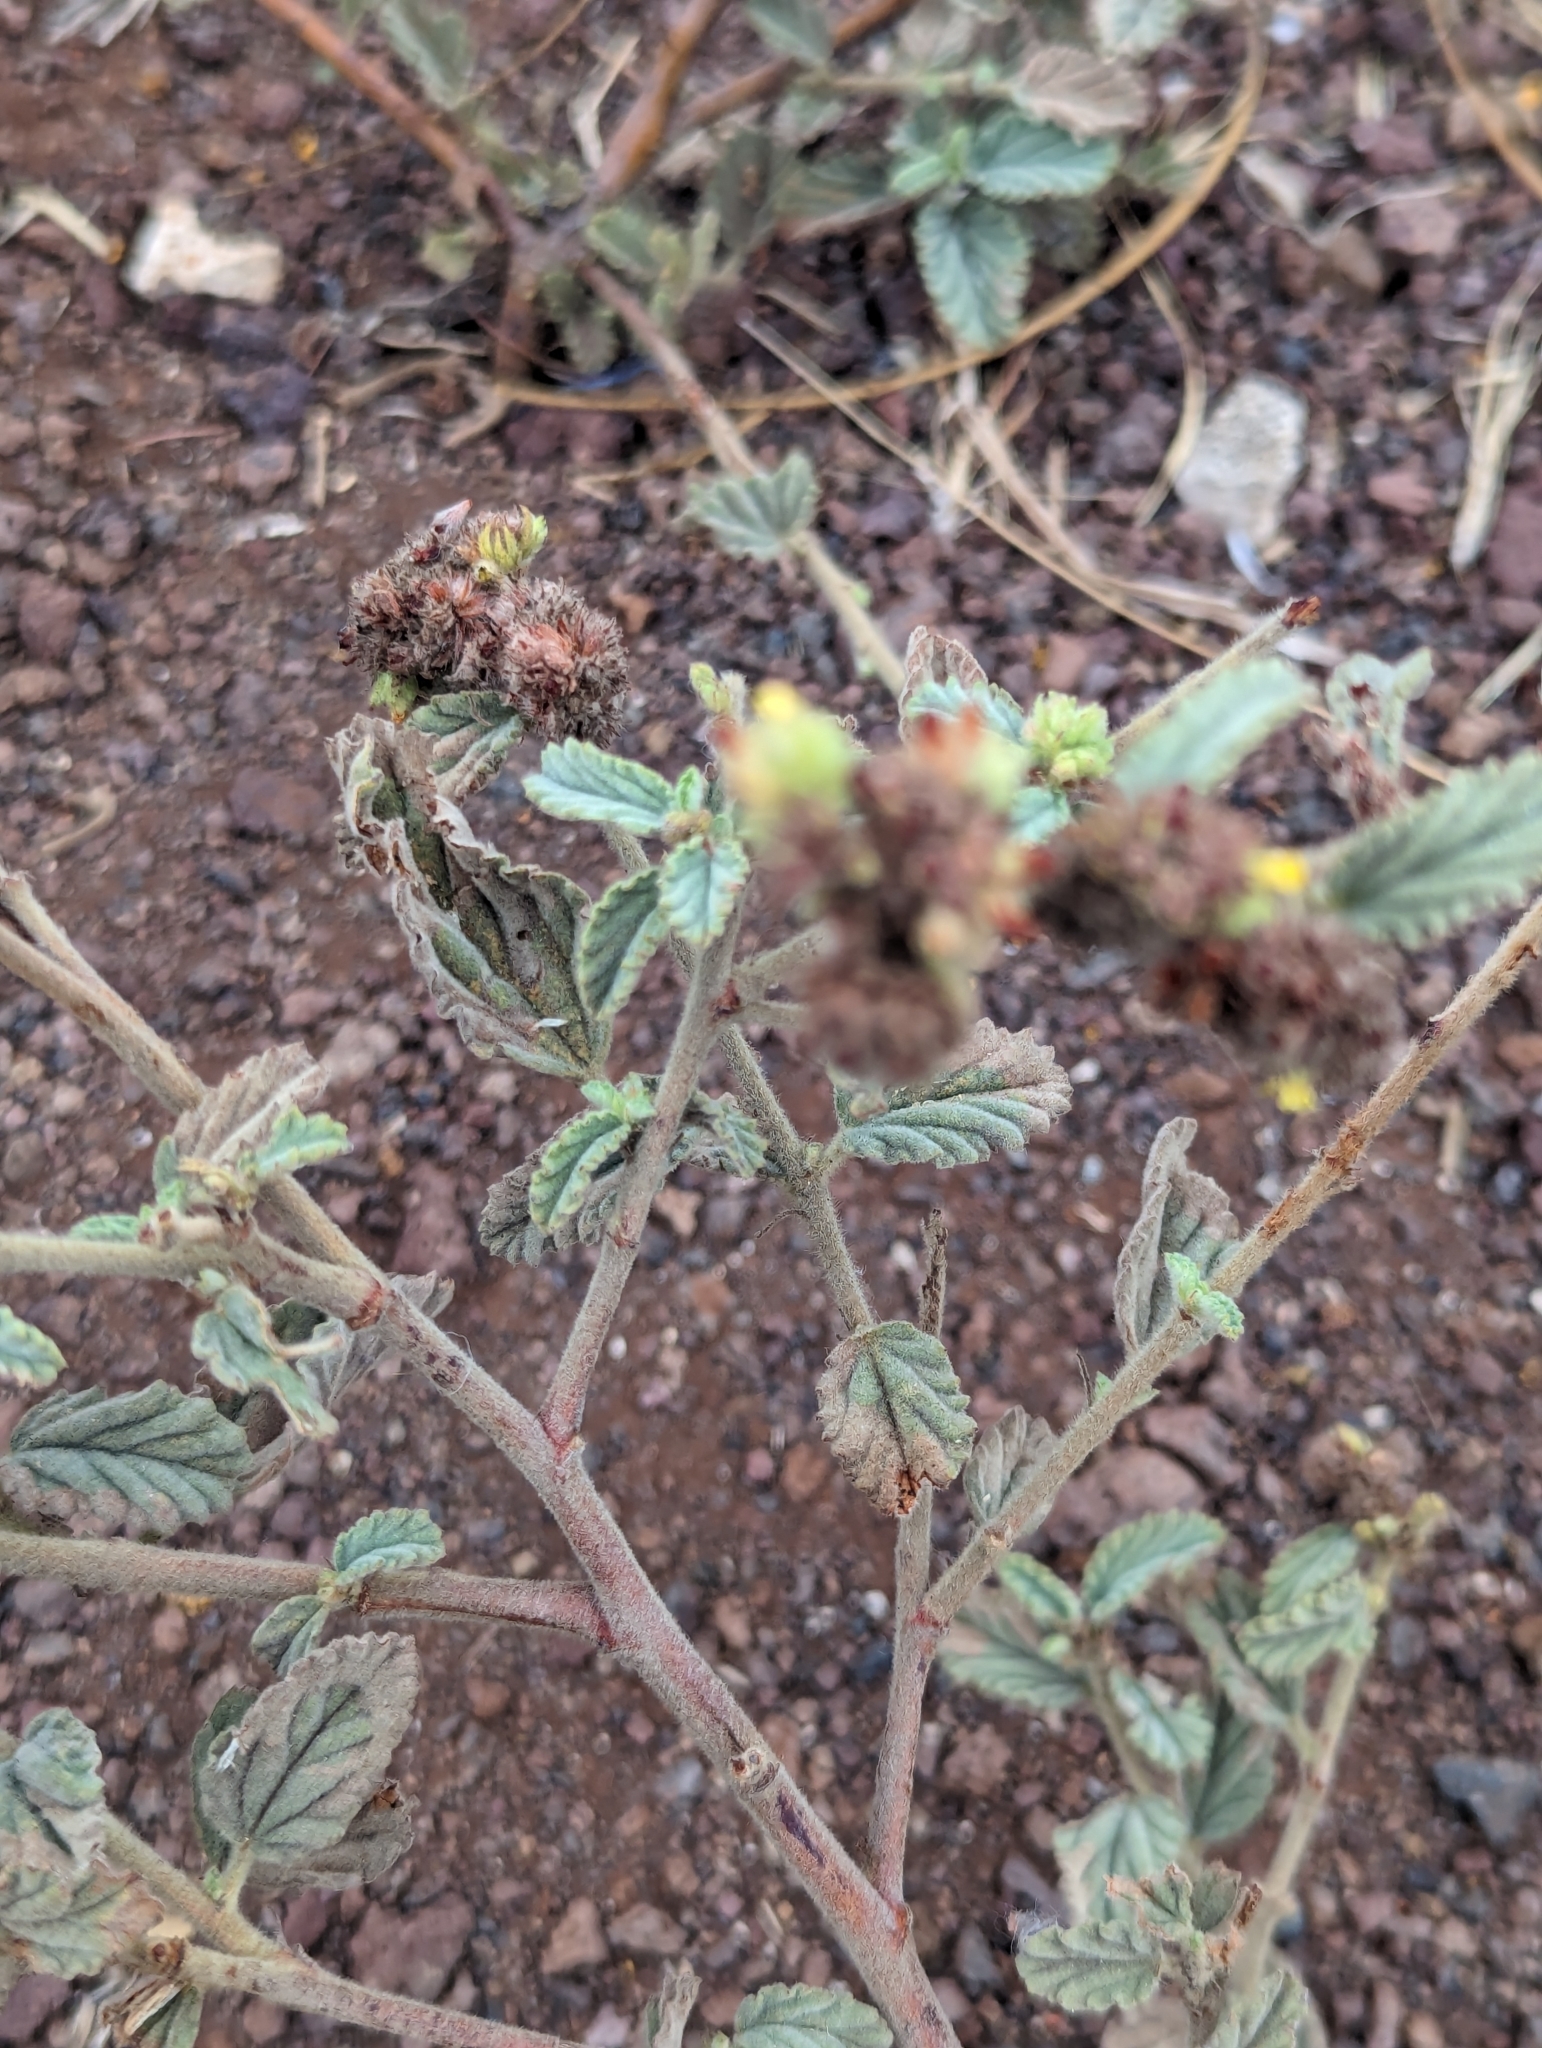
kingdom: Plantae
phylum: Tracheophyta
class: Magnoliopsida
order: Malvales
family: Malvaceae
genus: Waltheria
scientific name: Waltheria ovata
